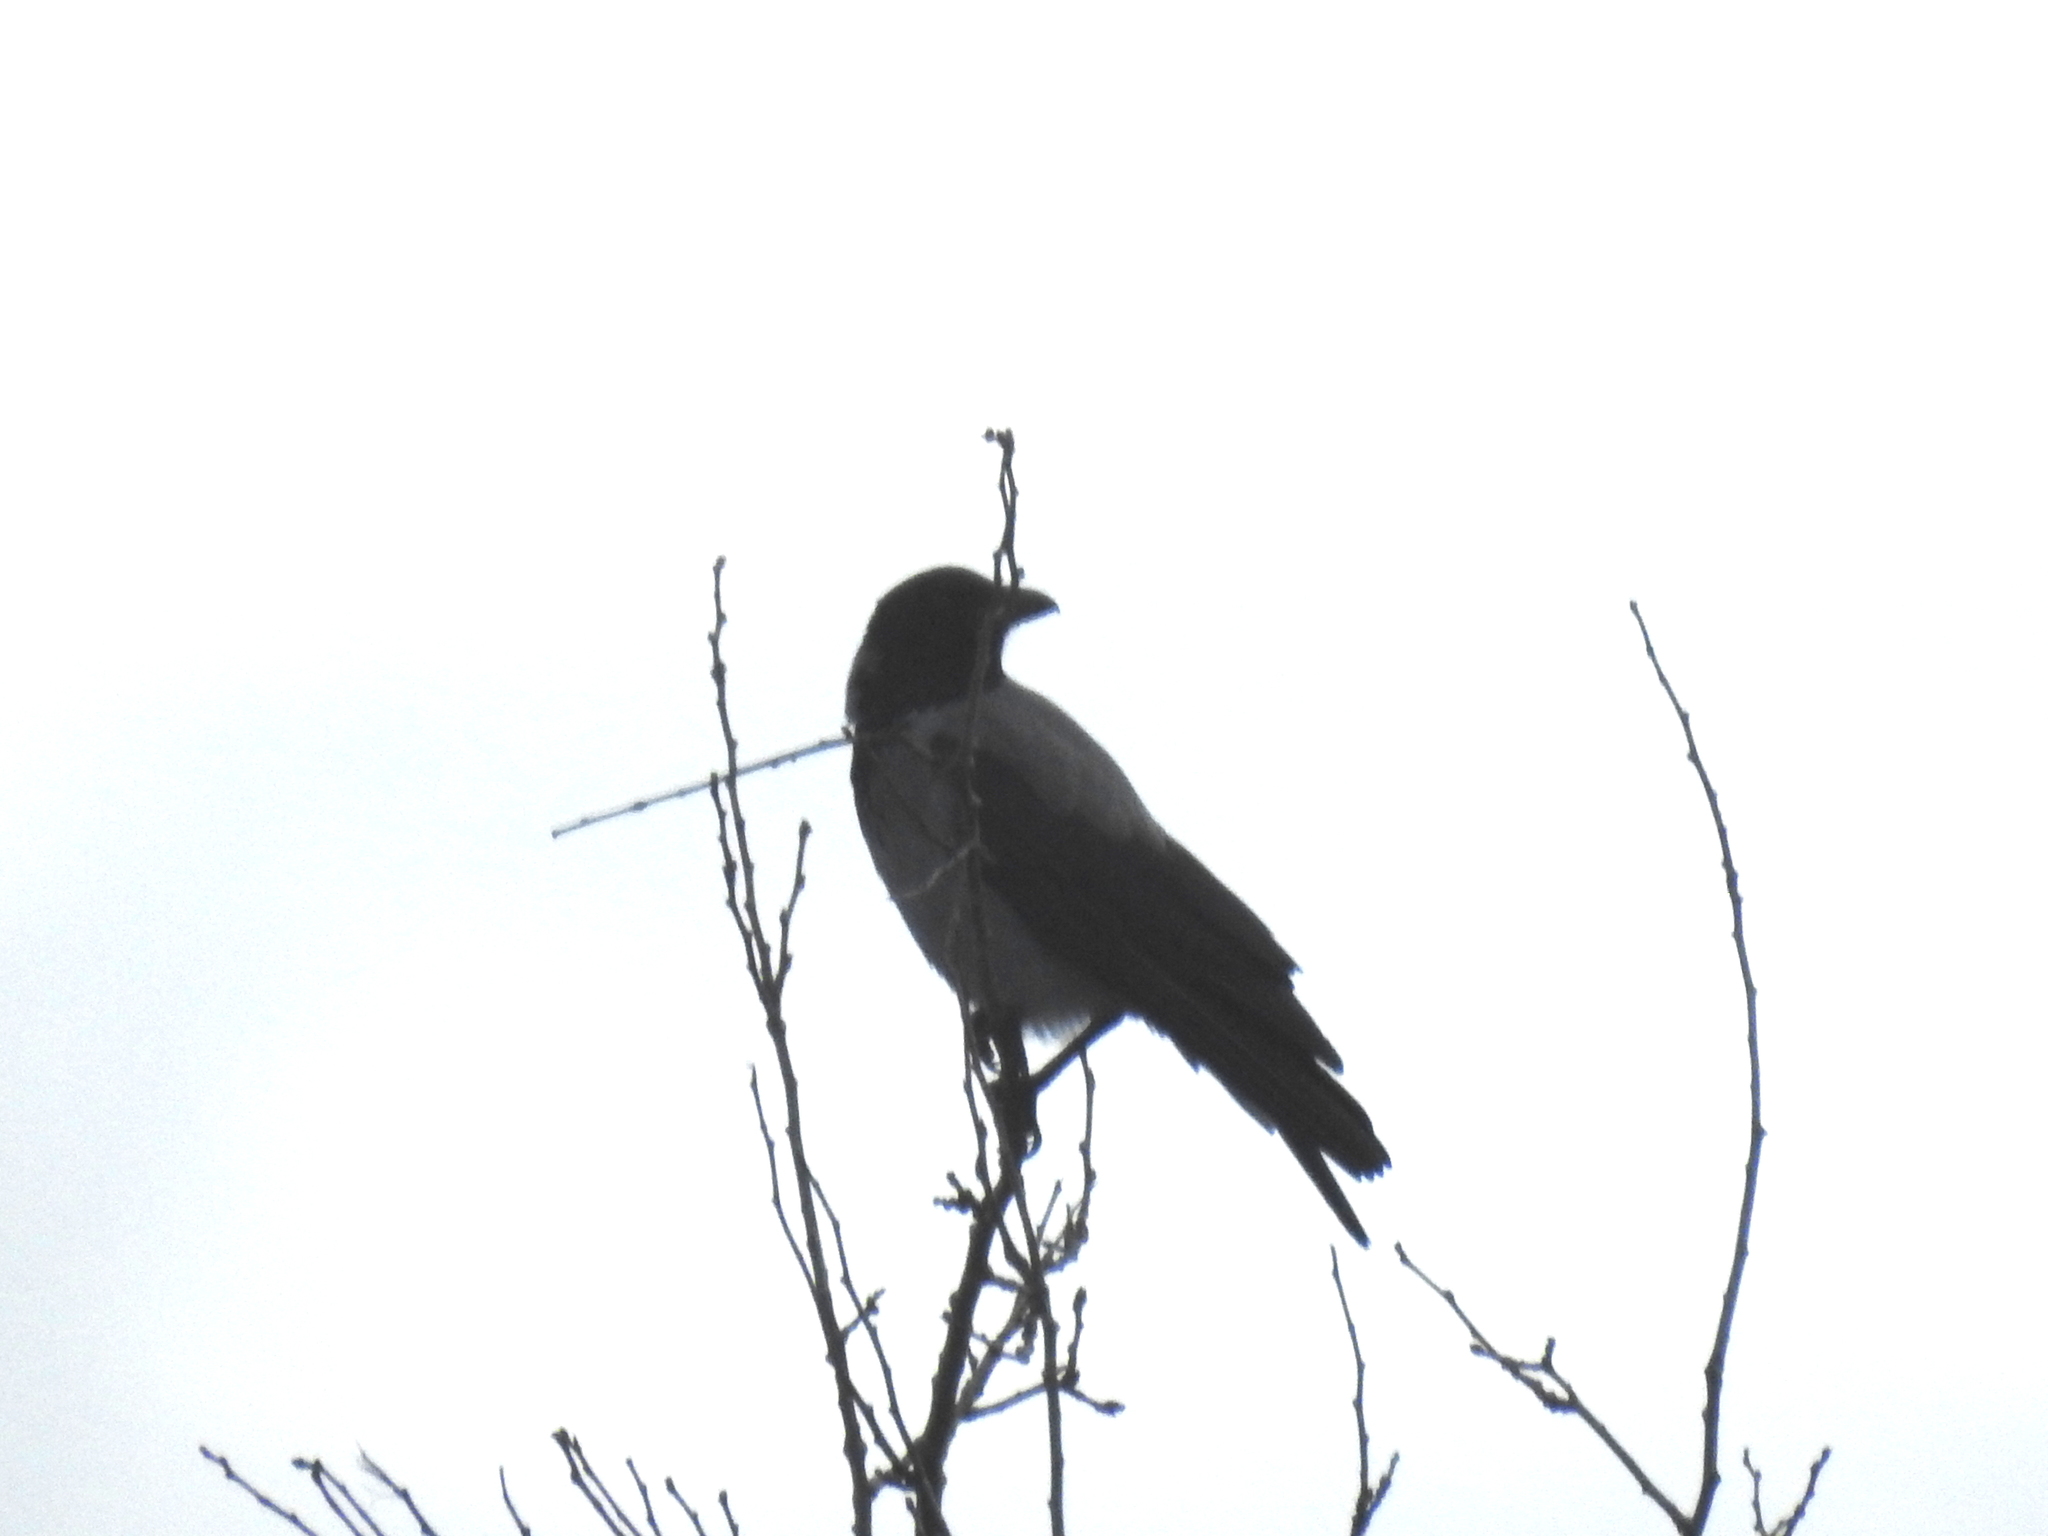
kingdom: Animalia
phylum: Chordata
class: Aves
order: Passeriformes
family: Corvidae
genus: Corvus
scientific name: Corvus cornix
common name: Hooded crow
